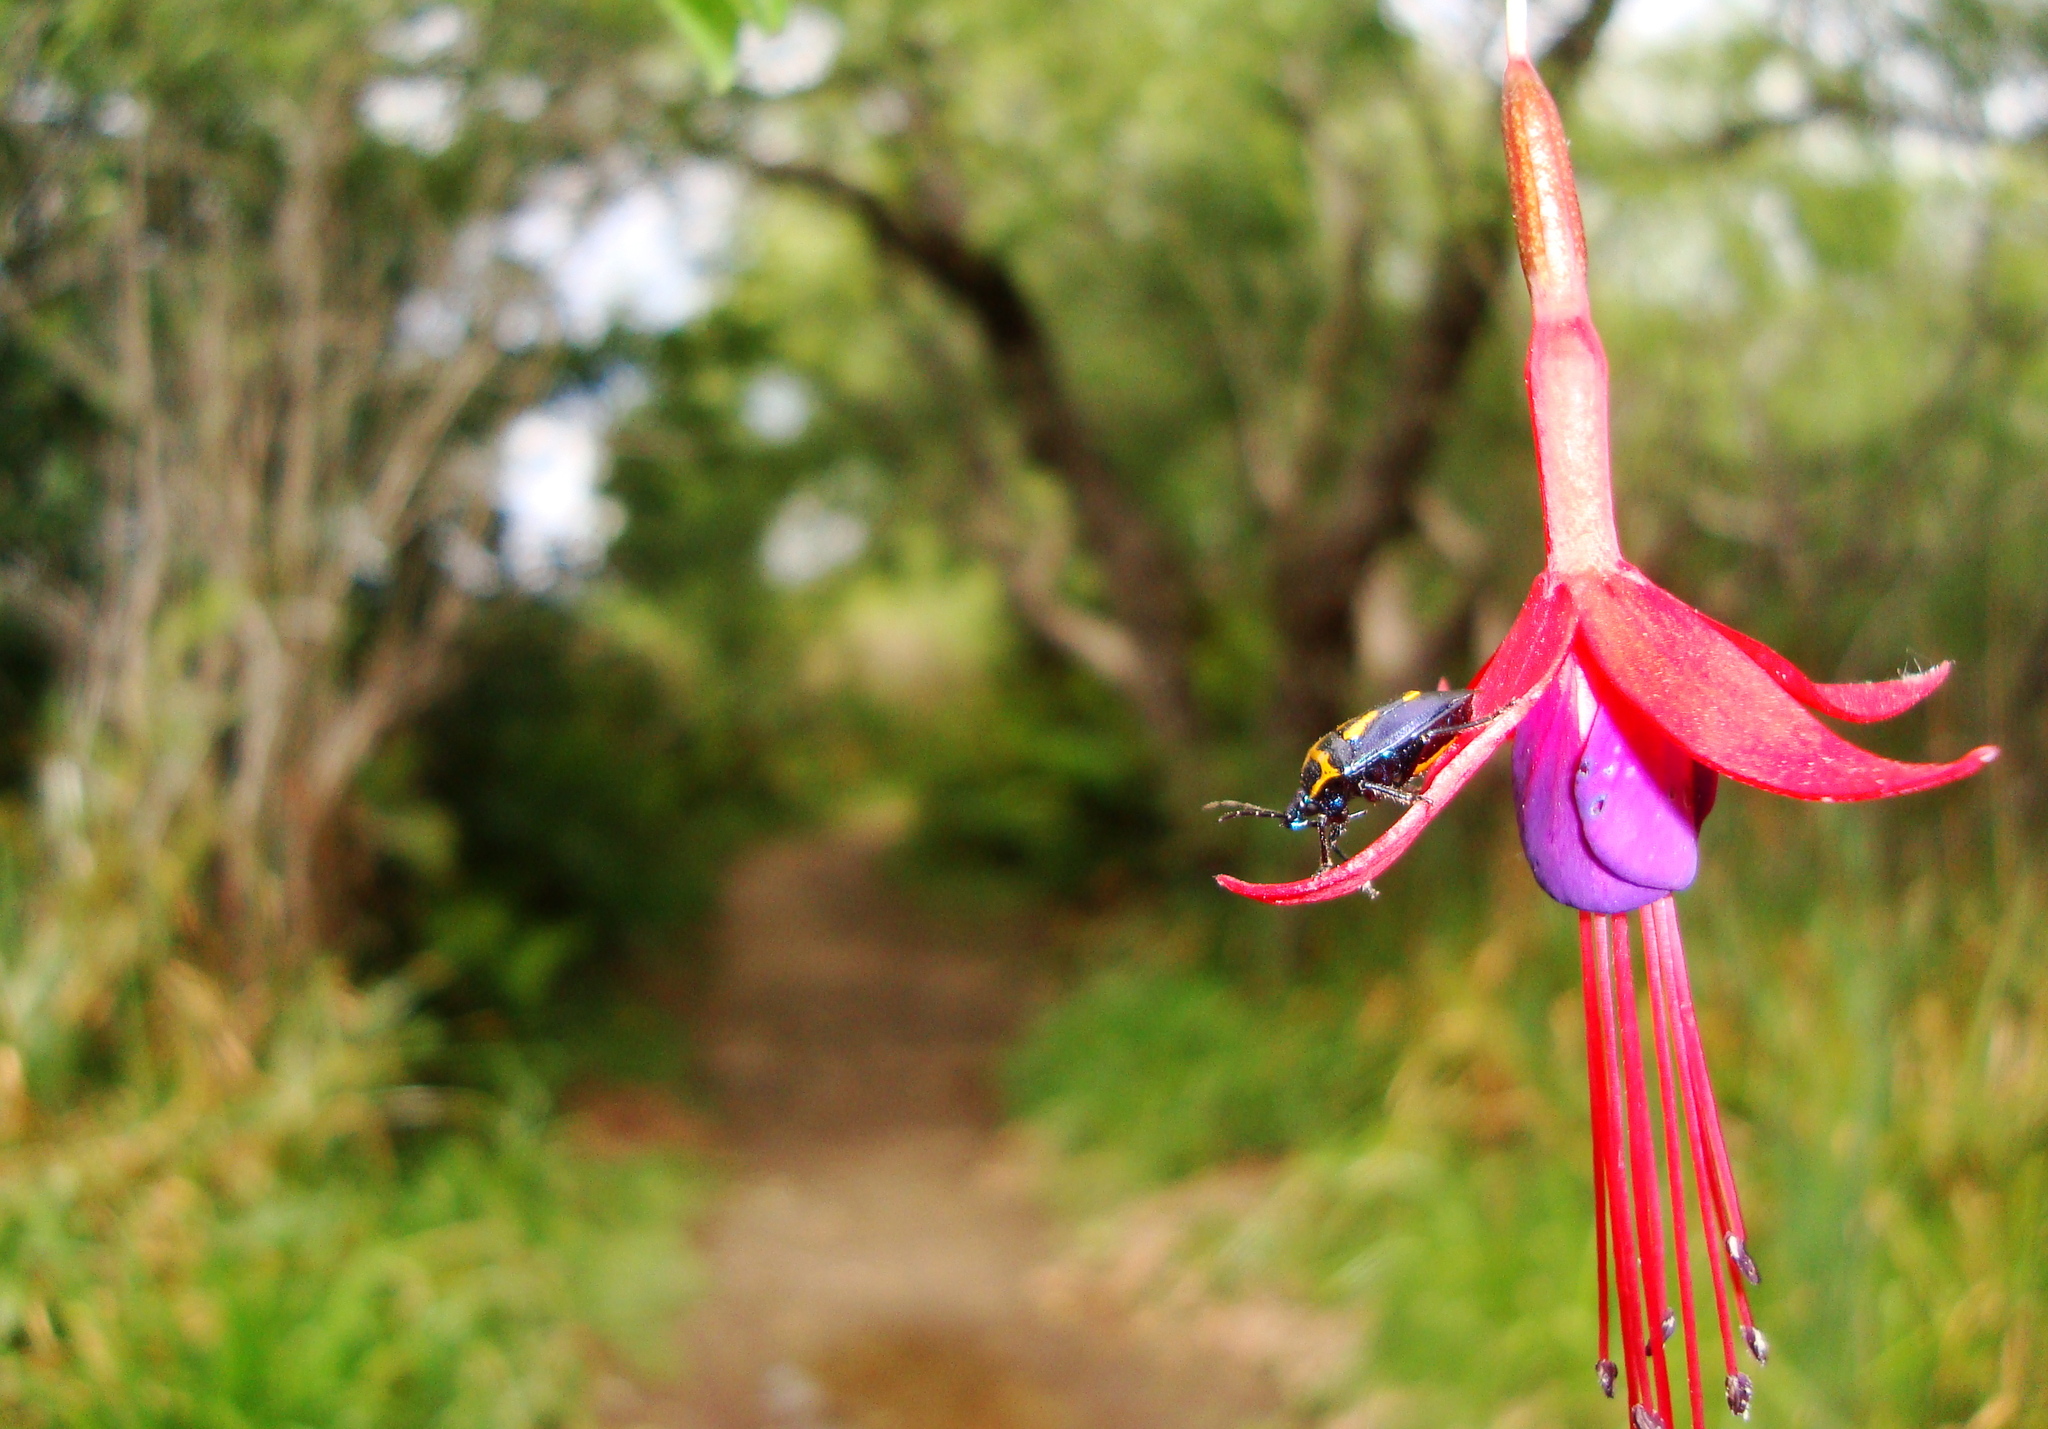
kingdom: Plantae
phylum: Tracheophyta
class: Magnoliopsida
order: Myrtales
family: Onagraceae
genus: Fuchsia
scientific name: Fuchsia magellanica
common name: Hardy fuchsia
